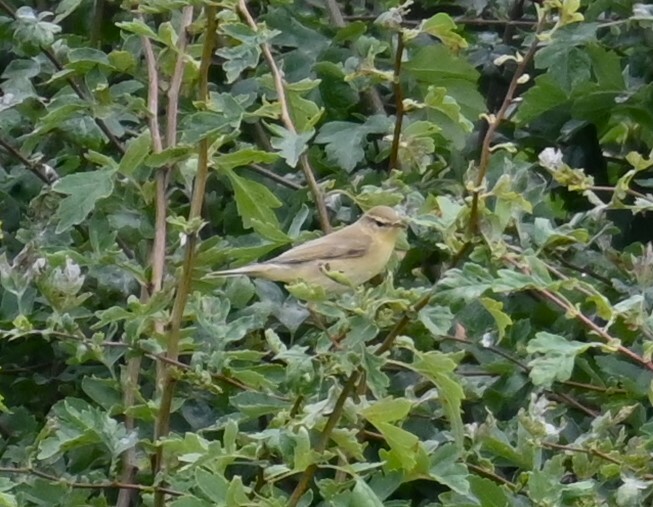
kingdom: Animalia
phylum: Chordata
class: Aves
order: Passeriformes
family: Phylloscopidae
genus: Phylloscopus
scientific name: Phylloscopus trochilus
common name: Willow warbler
